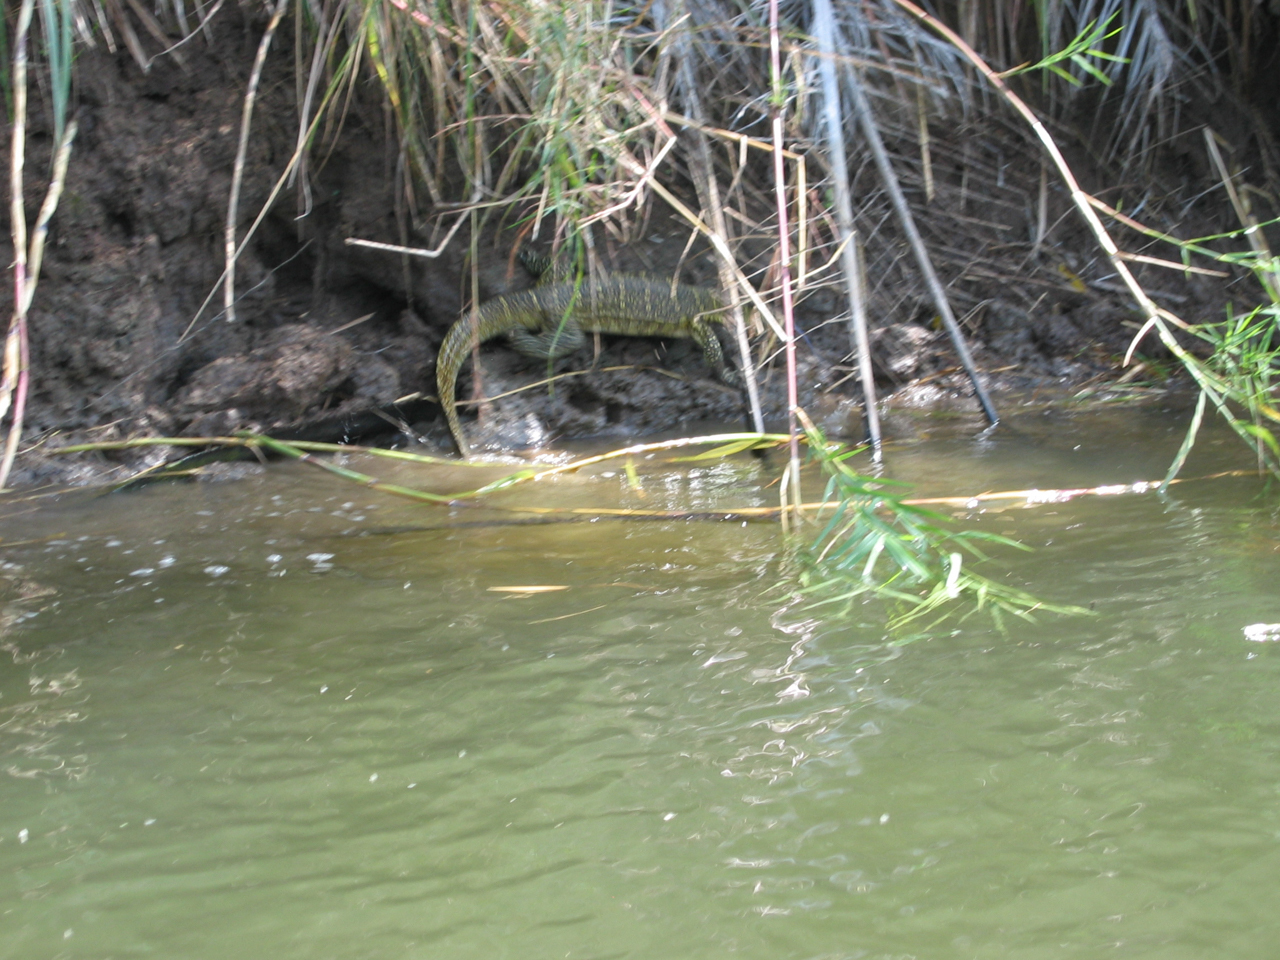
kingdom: Animalia
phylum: Chordata
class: Squamata
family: Varanidae
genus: Varanus
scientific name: Varanus niloticus
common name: Nile monitor
